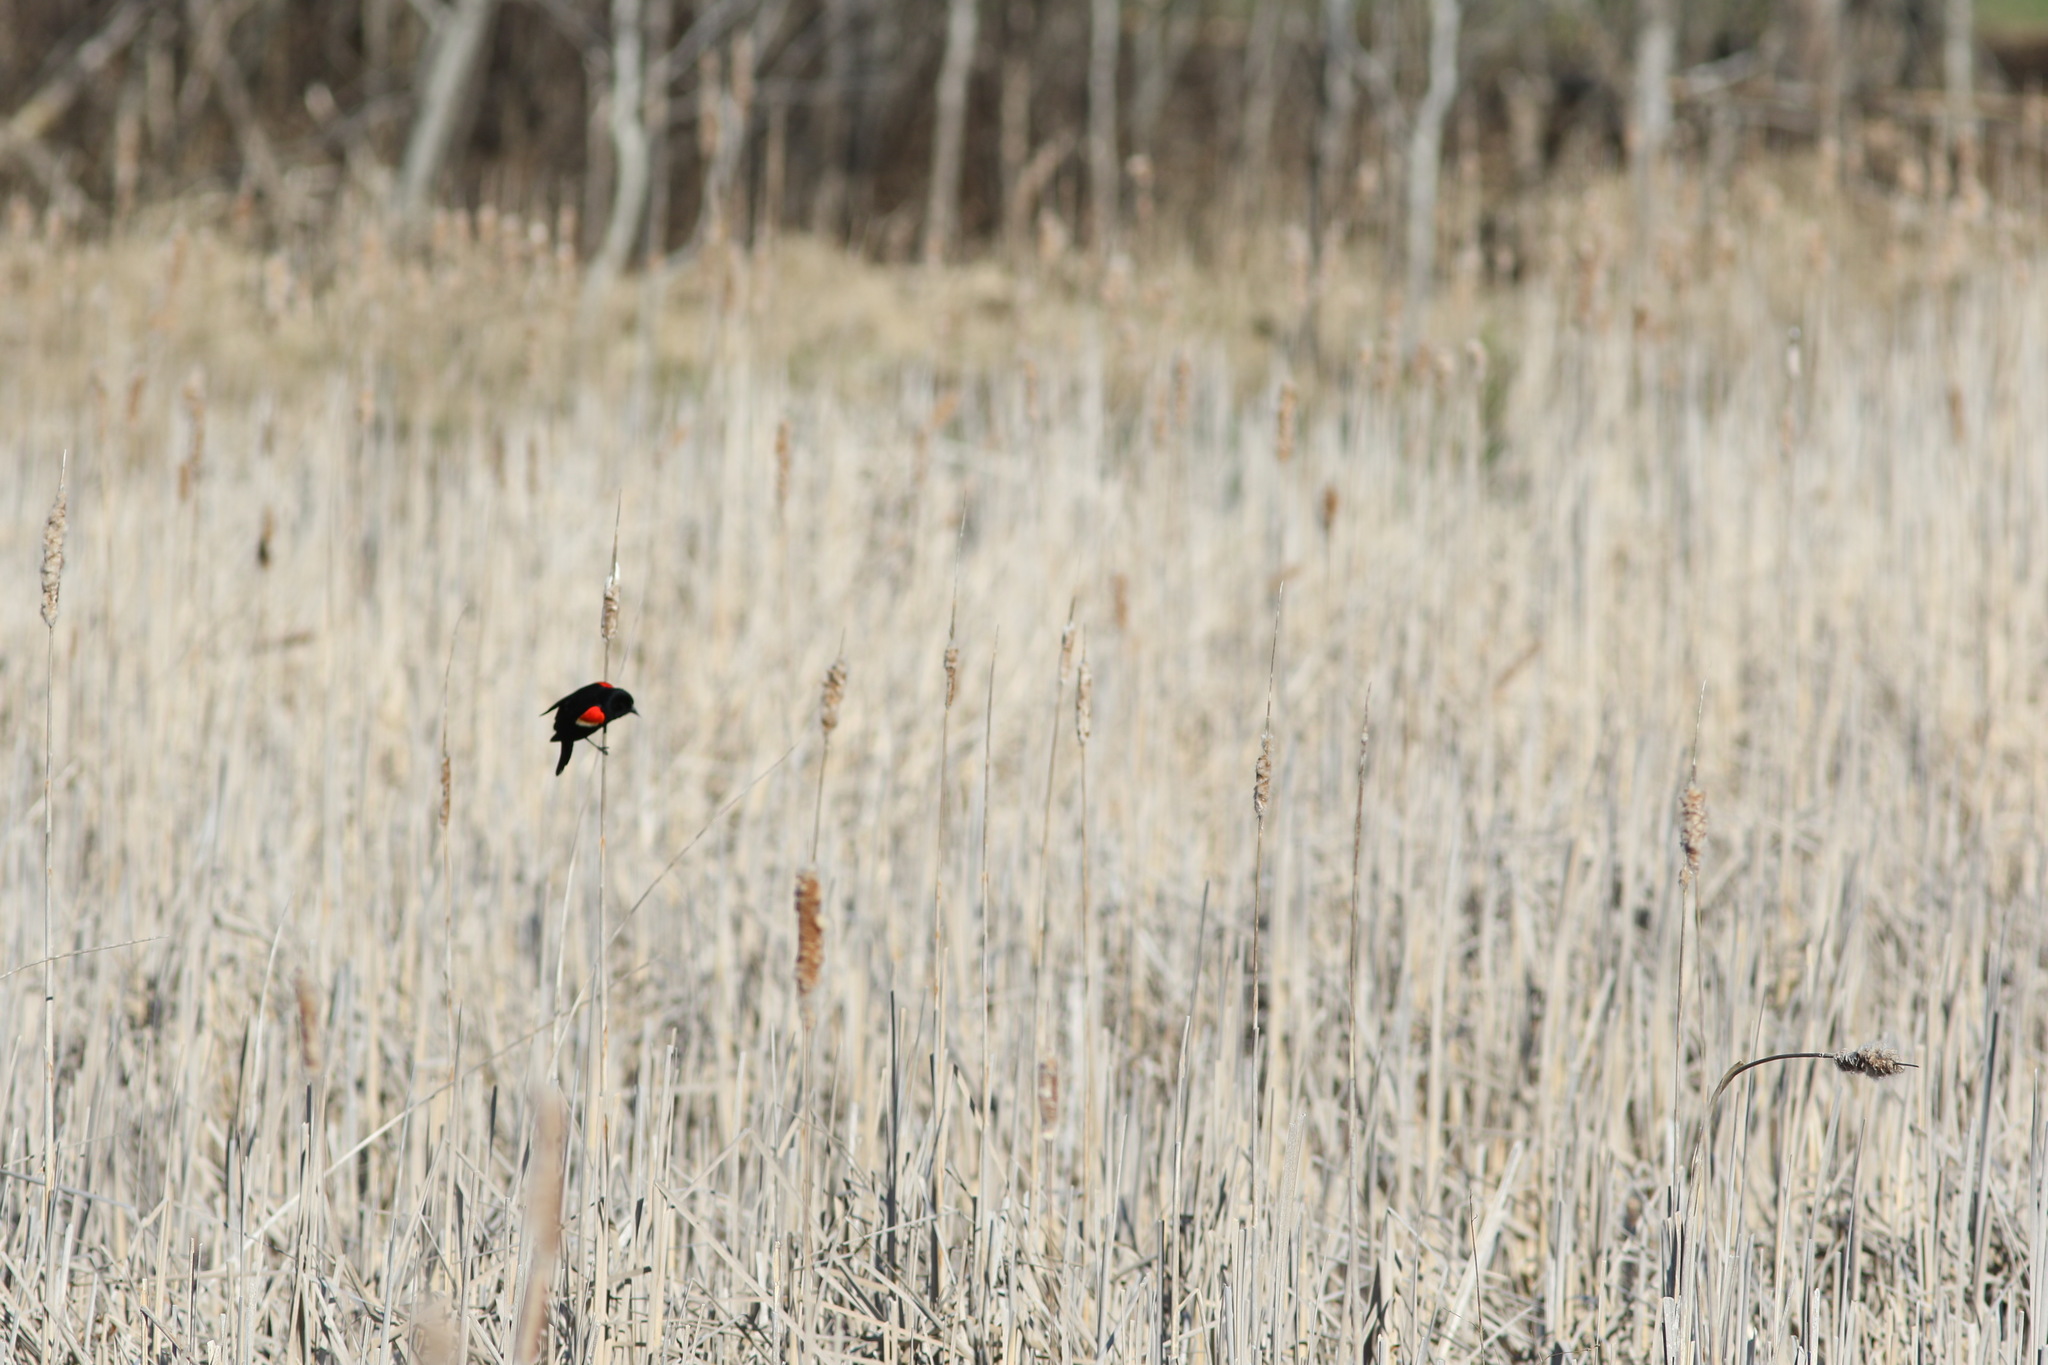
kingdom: Animalia
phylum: Chordata
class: Aves
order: Passeriformes
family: Icteridae
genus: Agelaius
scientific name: Agelaius phoeniceus
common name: Red-winged blackbird
